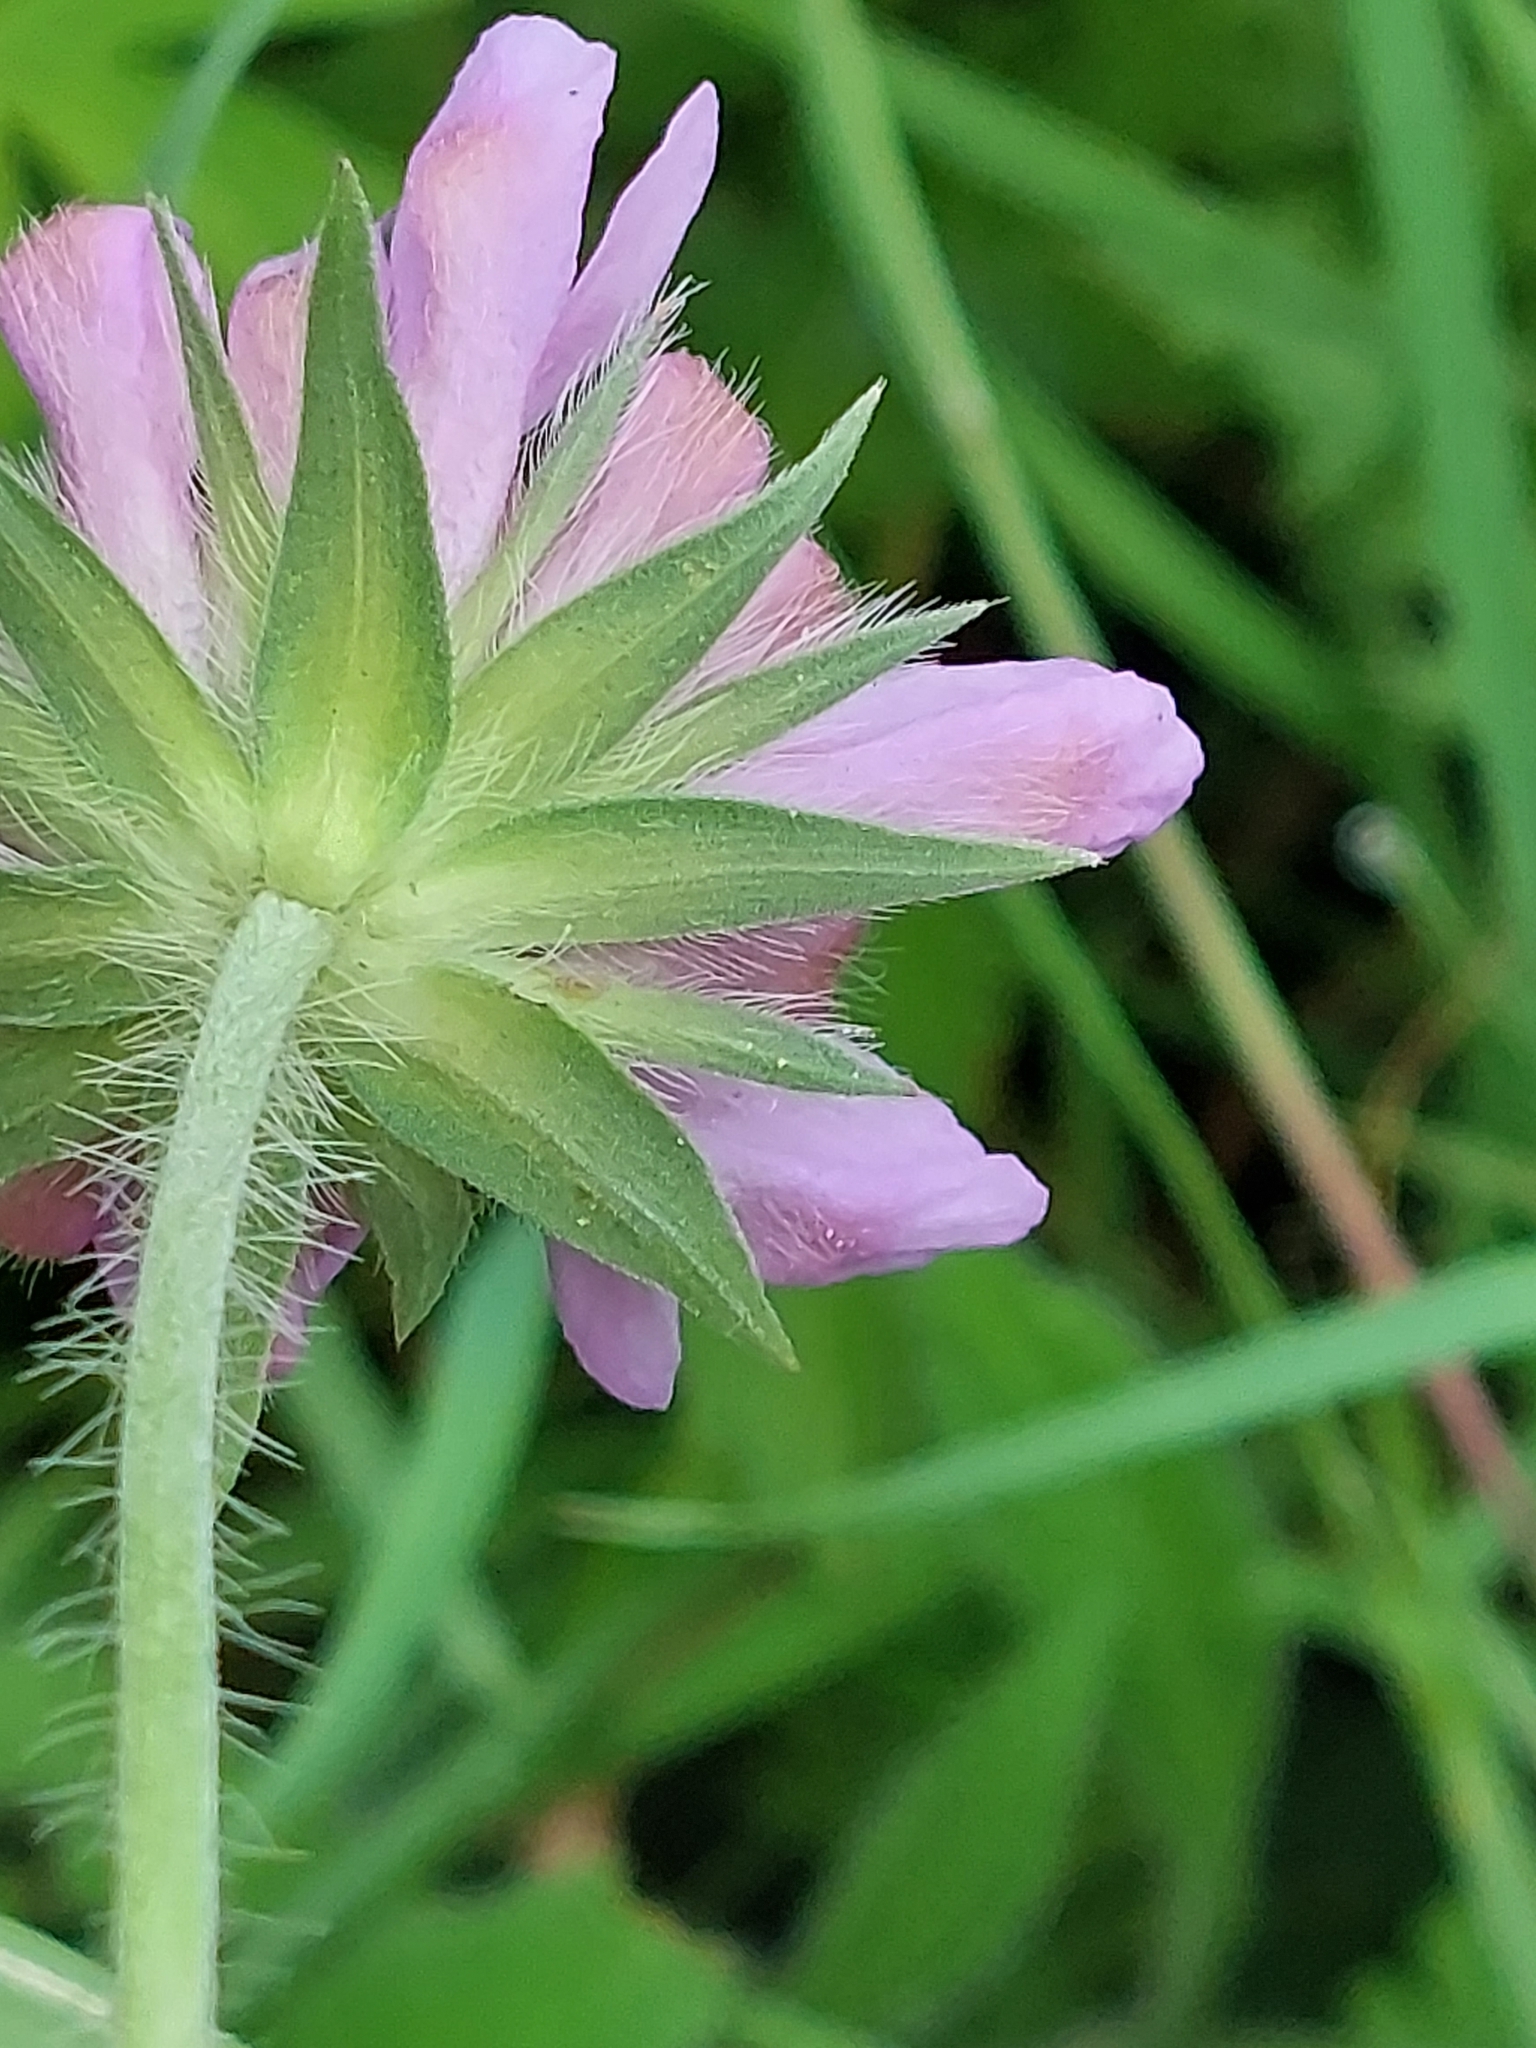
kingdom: Plantae
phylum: Tracheophyta
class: Magnoliopsida
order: Dipsacales
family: Caprifoliaceae
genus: Knautia
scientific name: Knautia arvensis
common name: Field scabiosa
